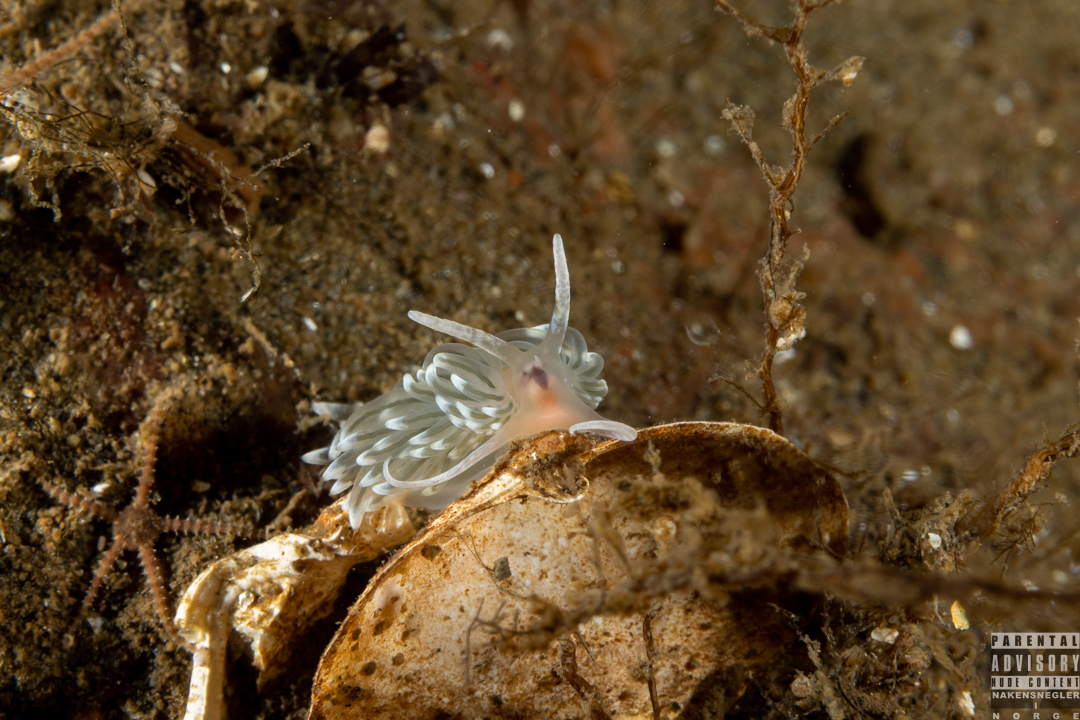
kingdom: Animalia
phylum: Mollusca
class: Gastropoda
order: Nudibranchia
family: Facelinidae
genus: Facelina
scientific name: Facelina dubia
